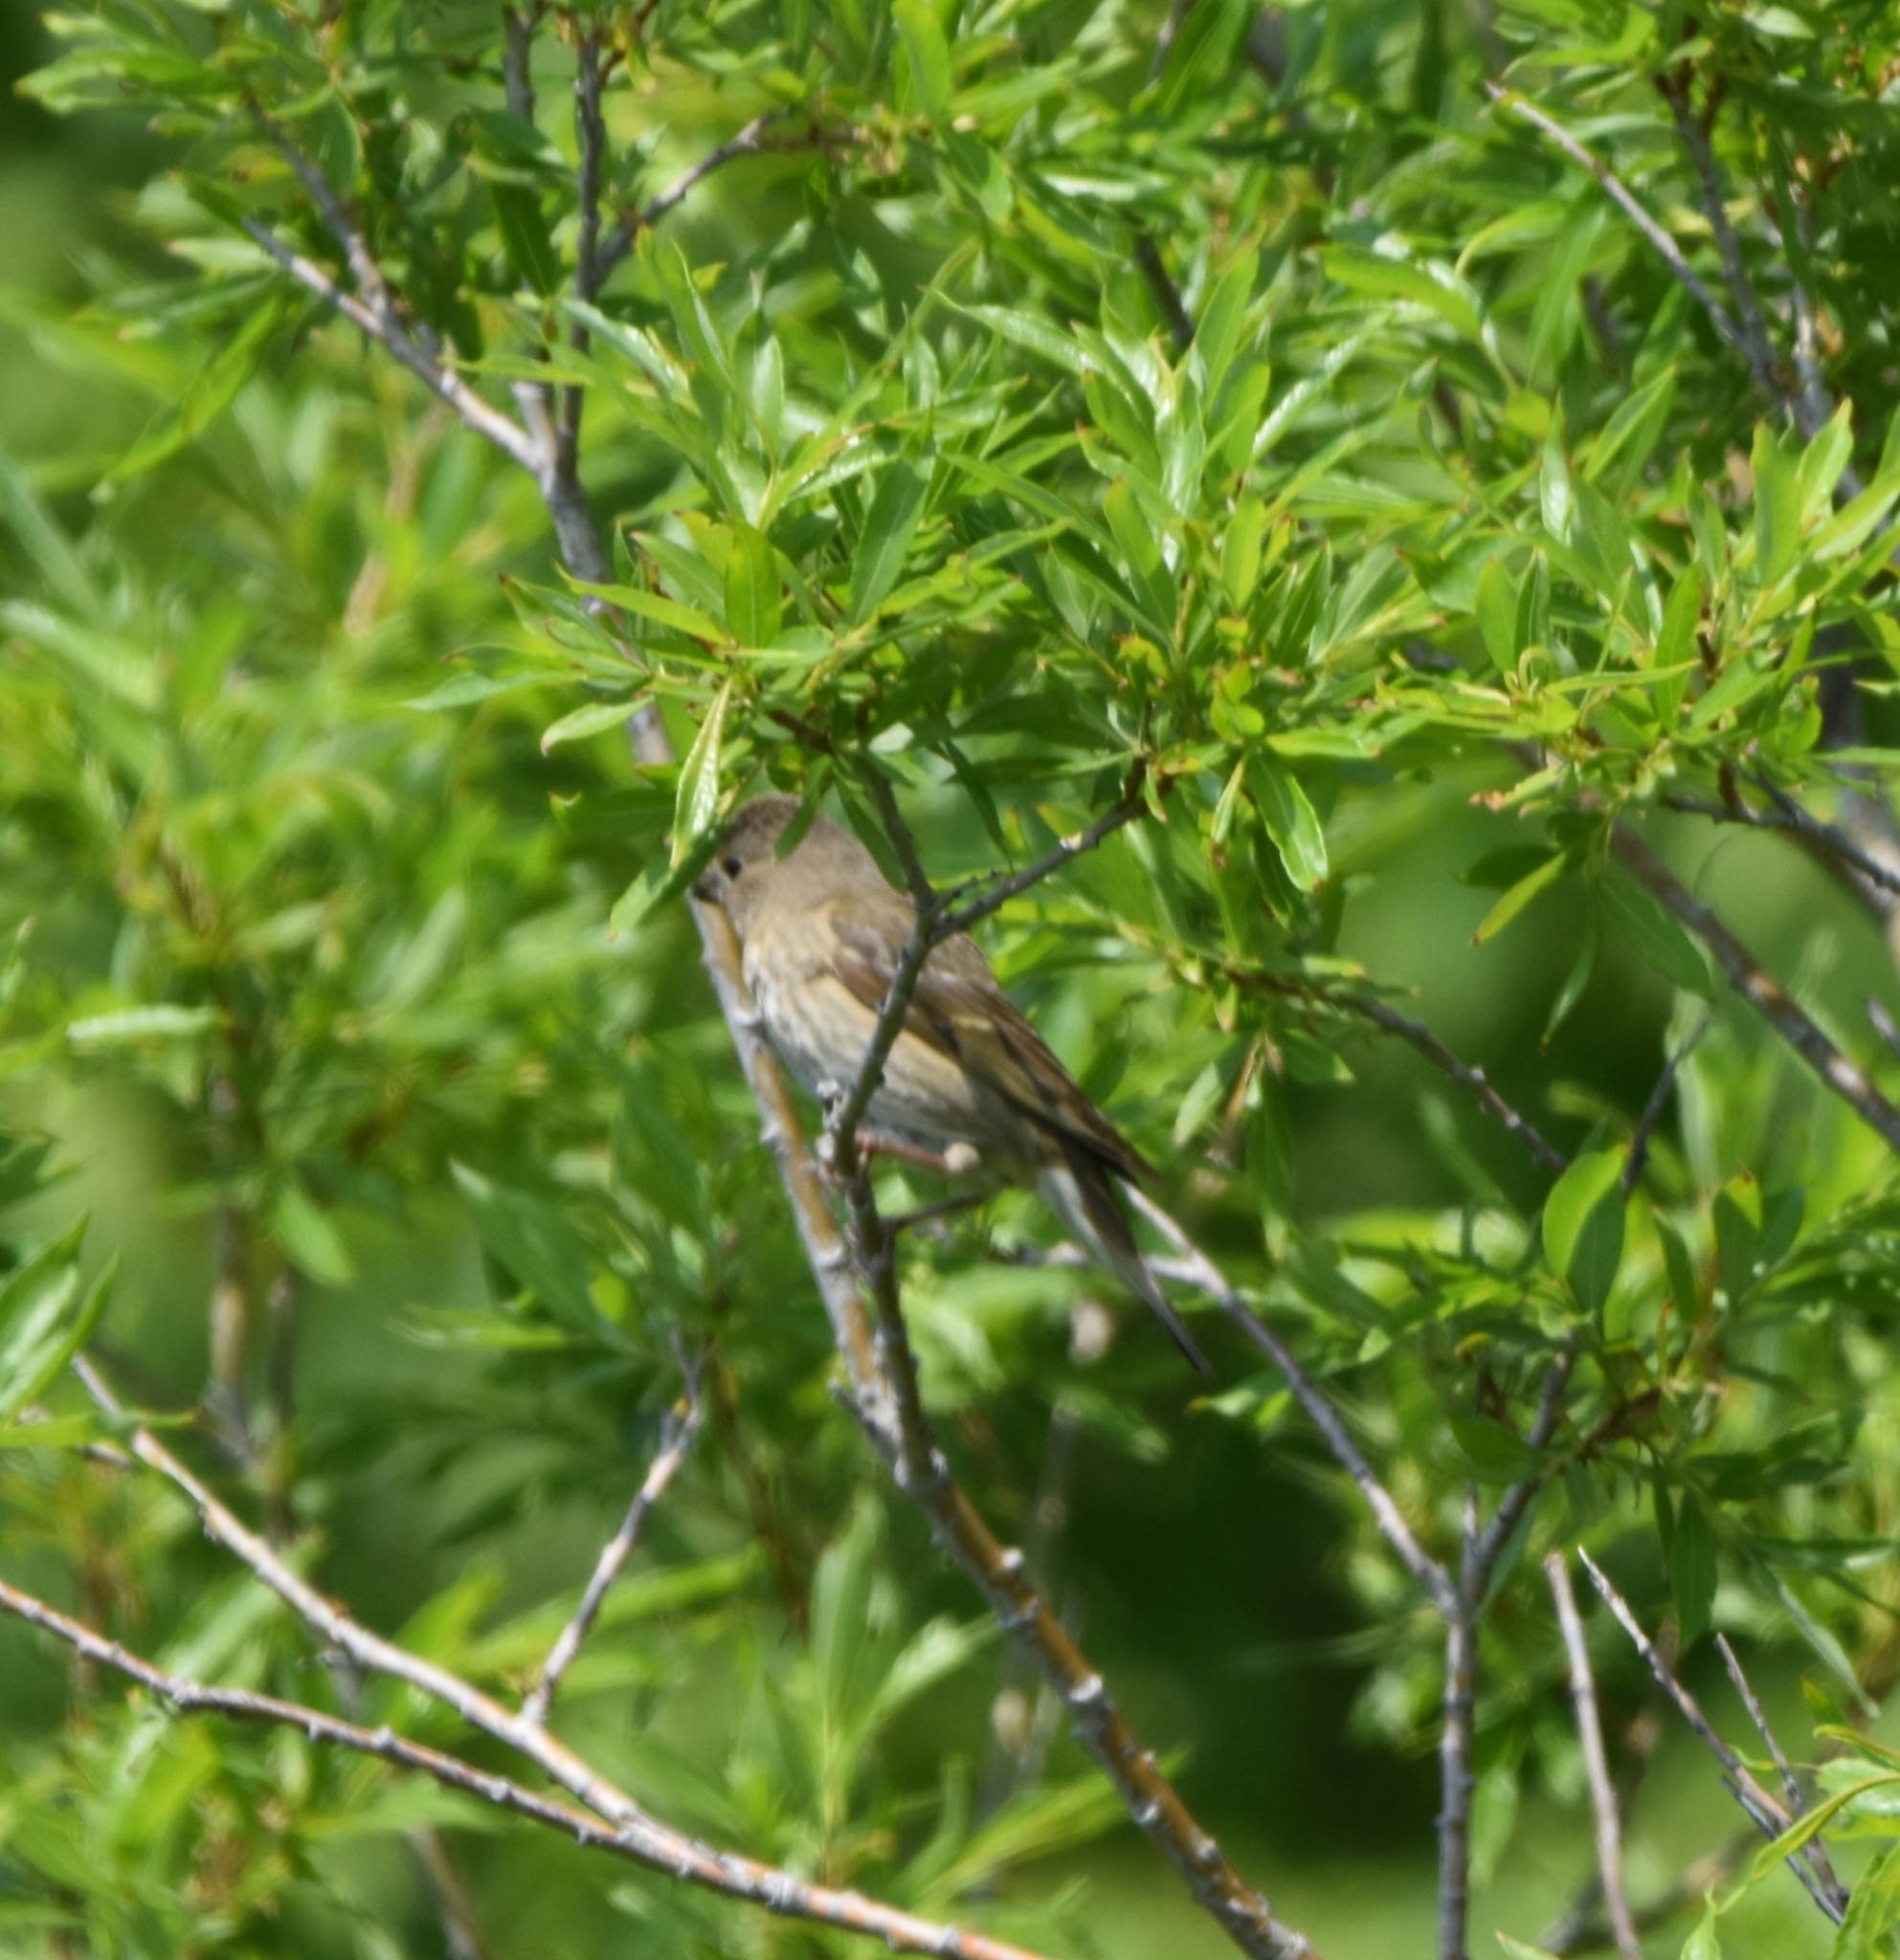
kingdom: Animalia
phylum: Chordata
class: Aves
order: Passeriformes
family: Fringillidae
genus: Carpodacus
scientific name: Carpodacus erythrinus
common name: Common rosefinch
